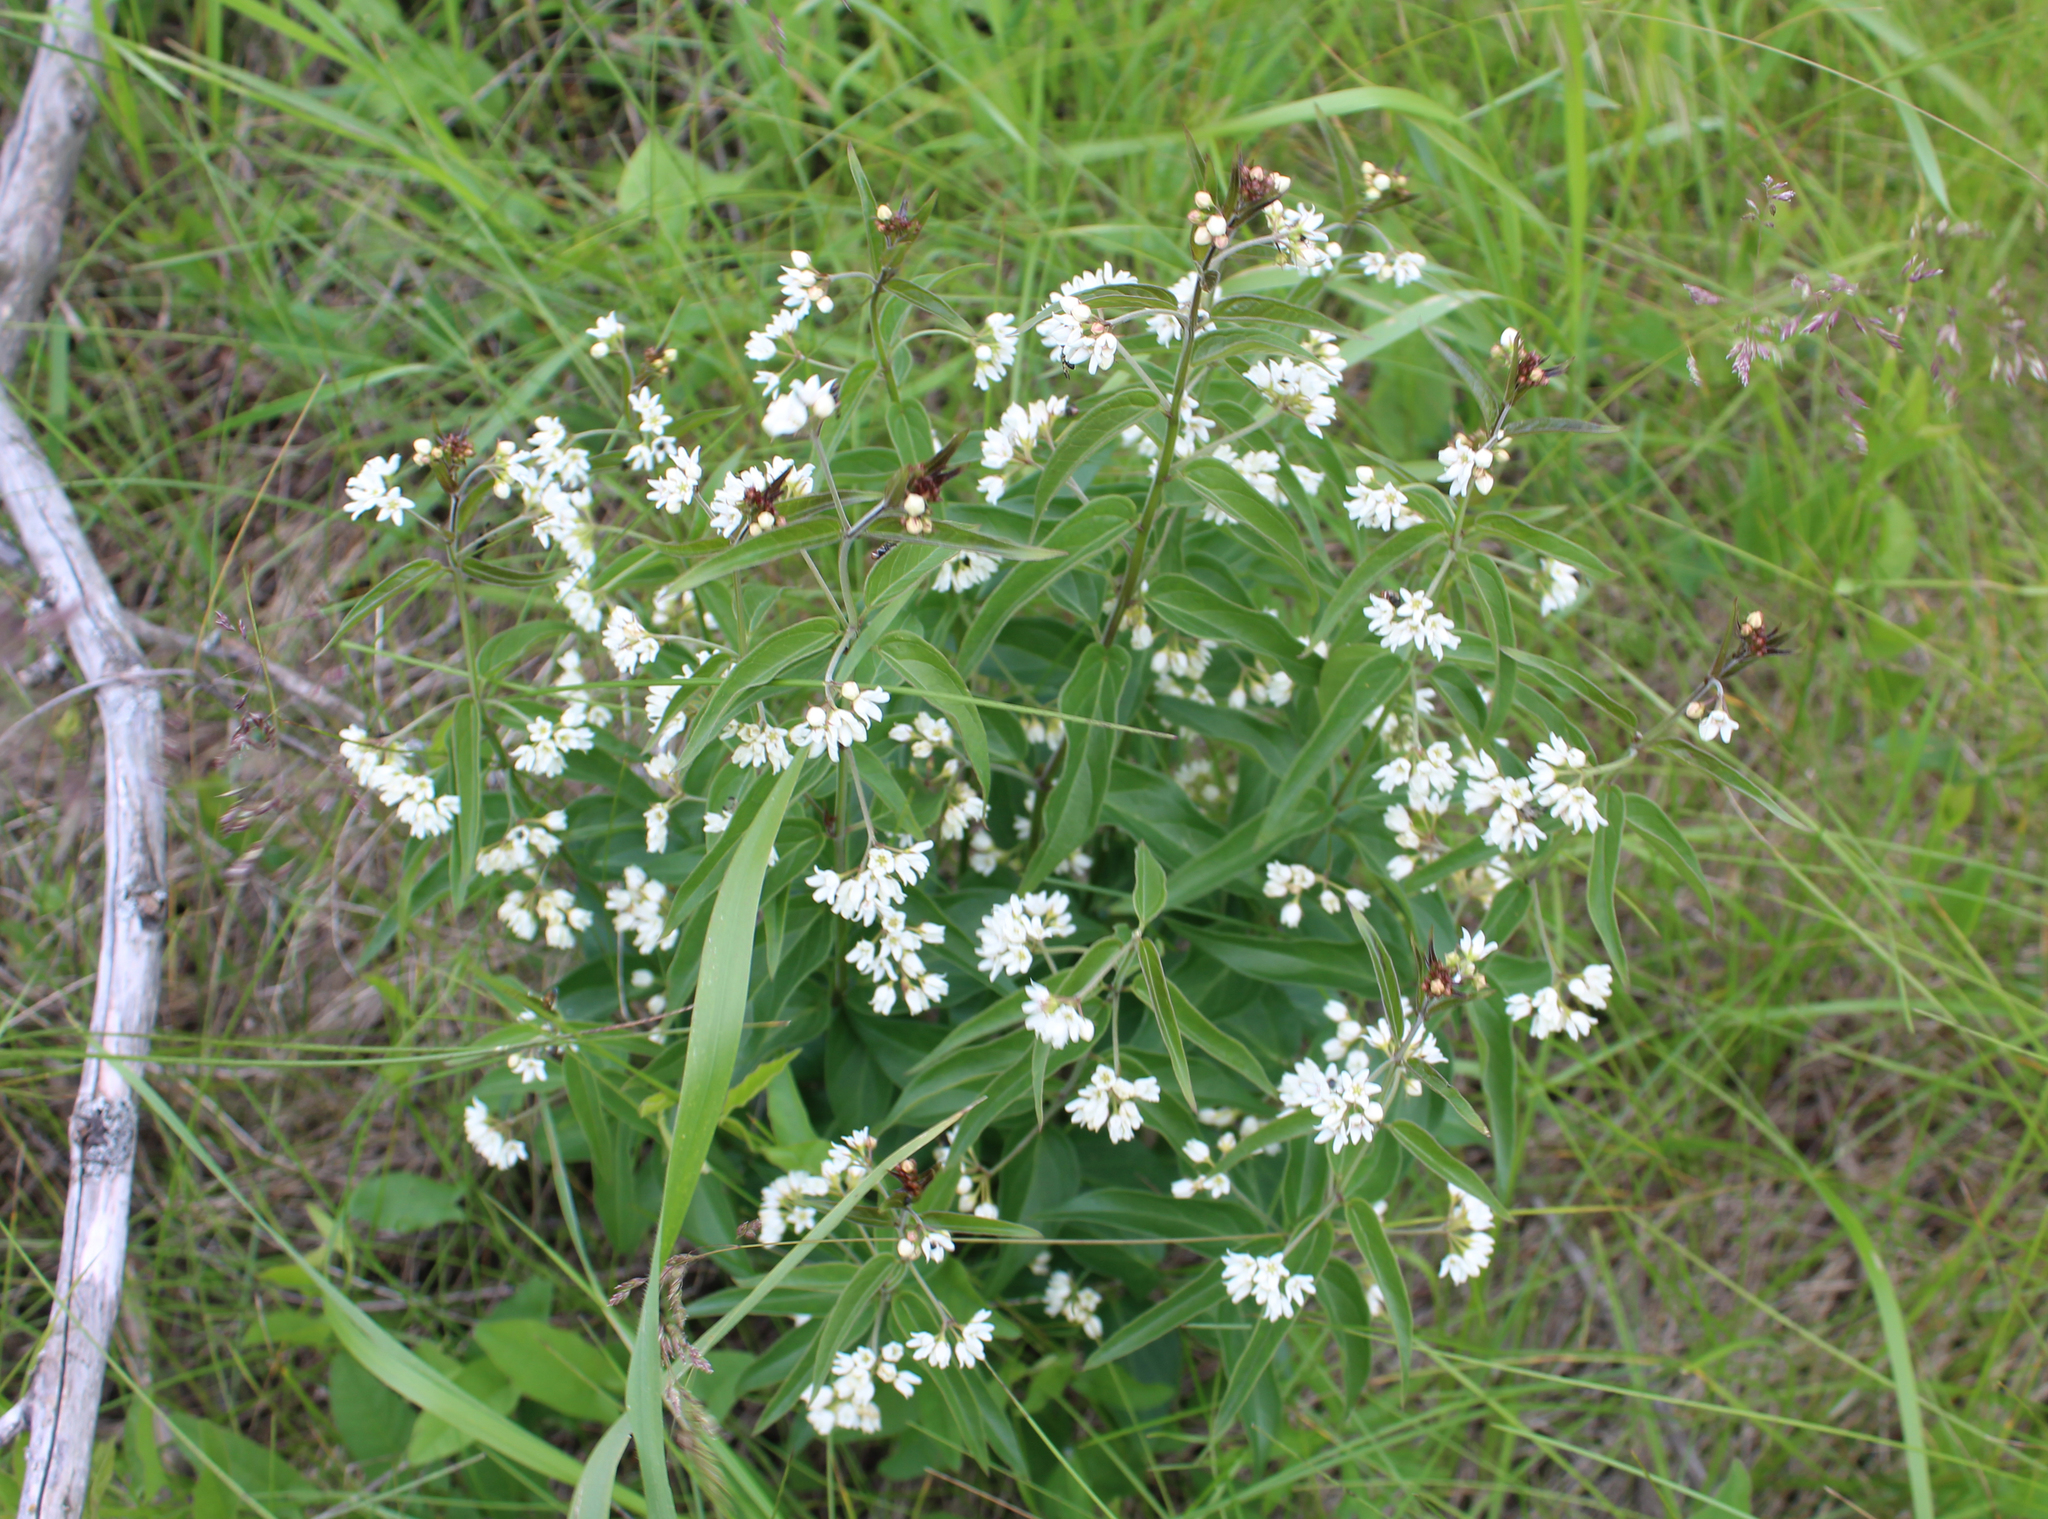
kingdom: Plantae
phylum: Tracheophyta
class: Magnoliopsida
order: Gentianales
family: Apocynaceae
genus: Vincetoxicum
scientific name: Vincetoxicum hirundinaria
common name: White swallowwort
